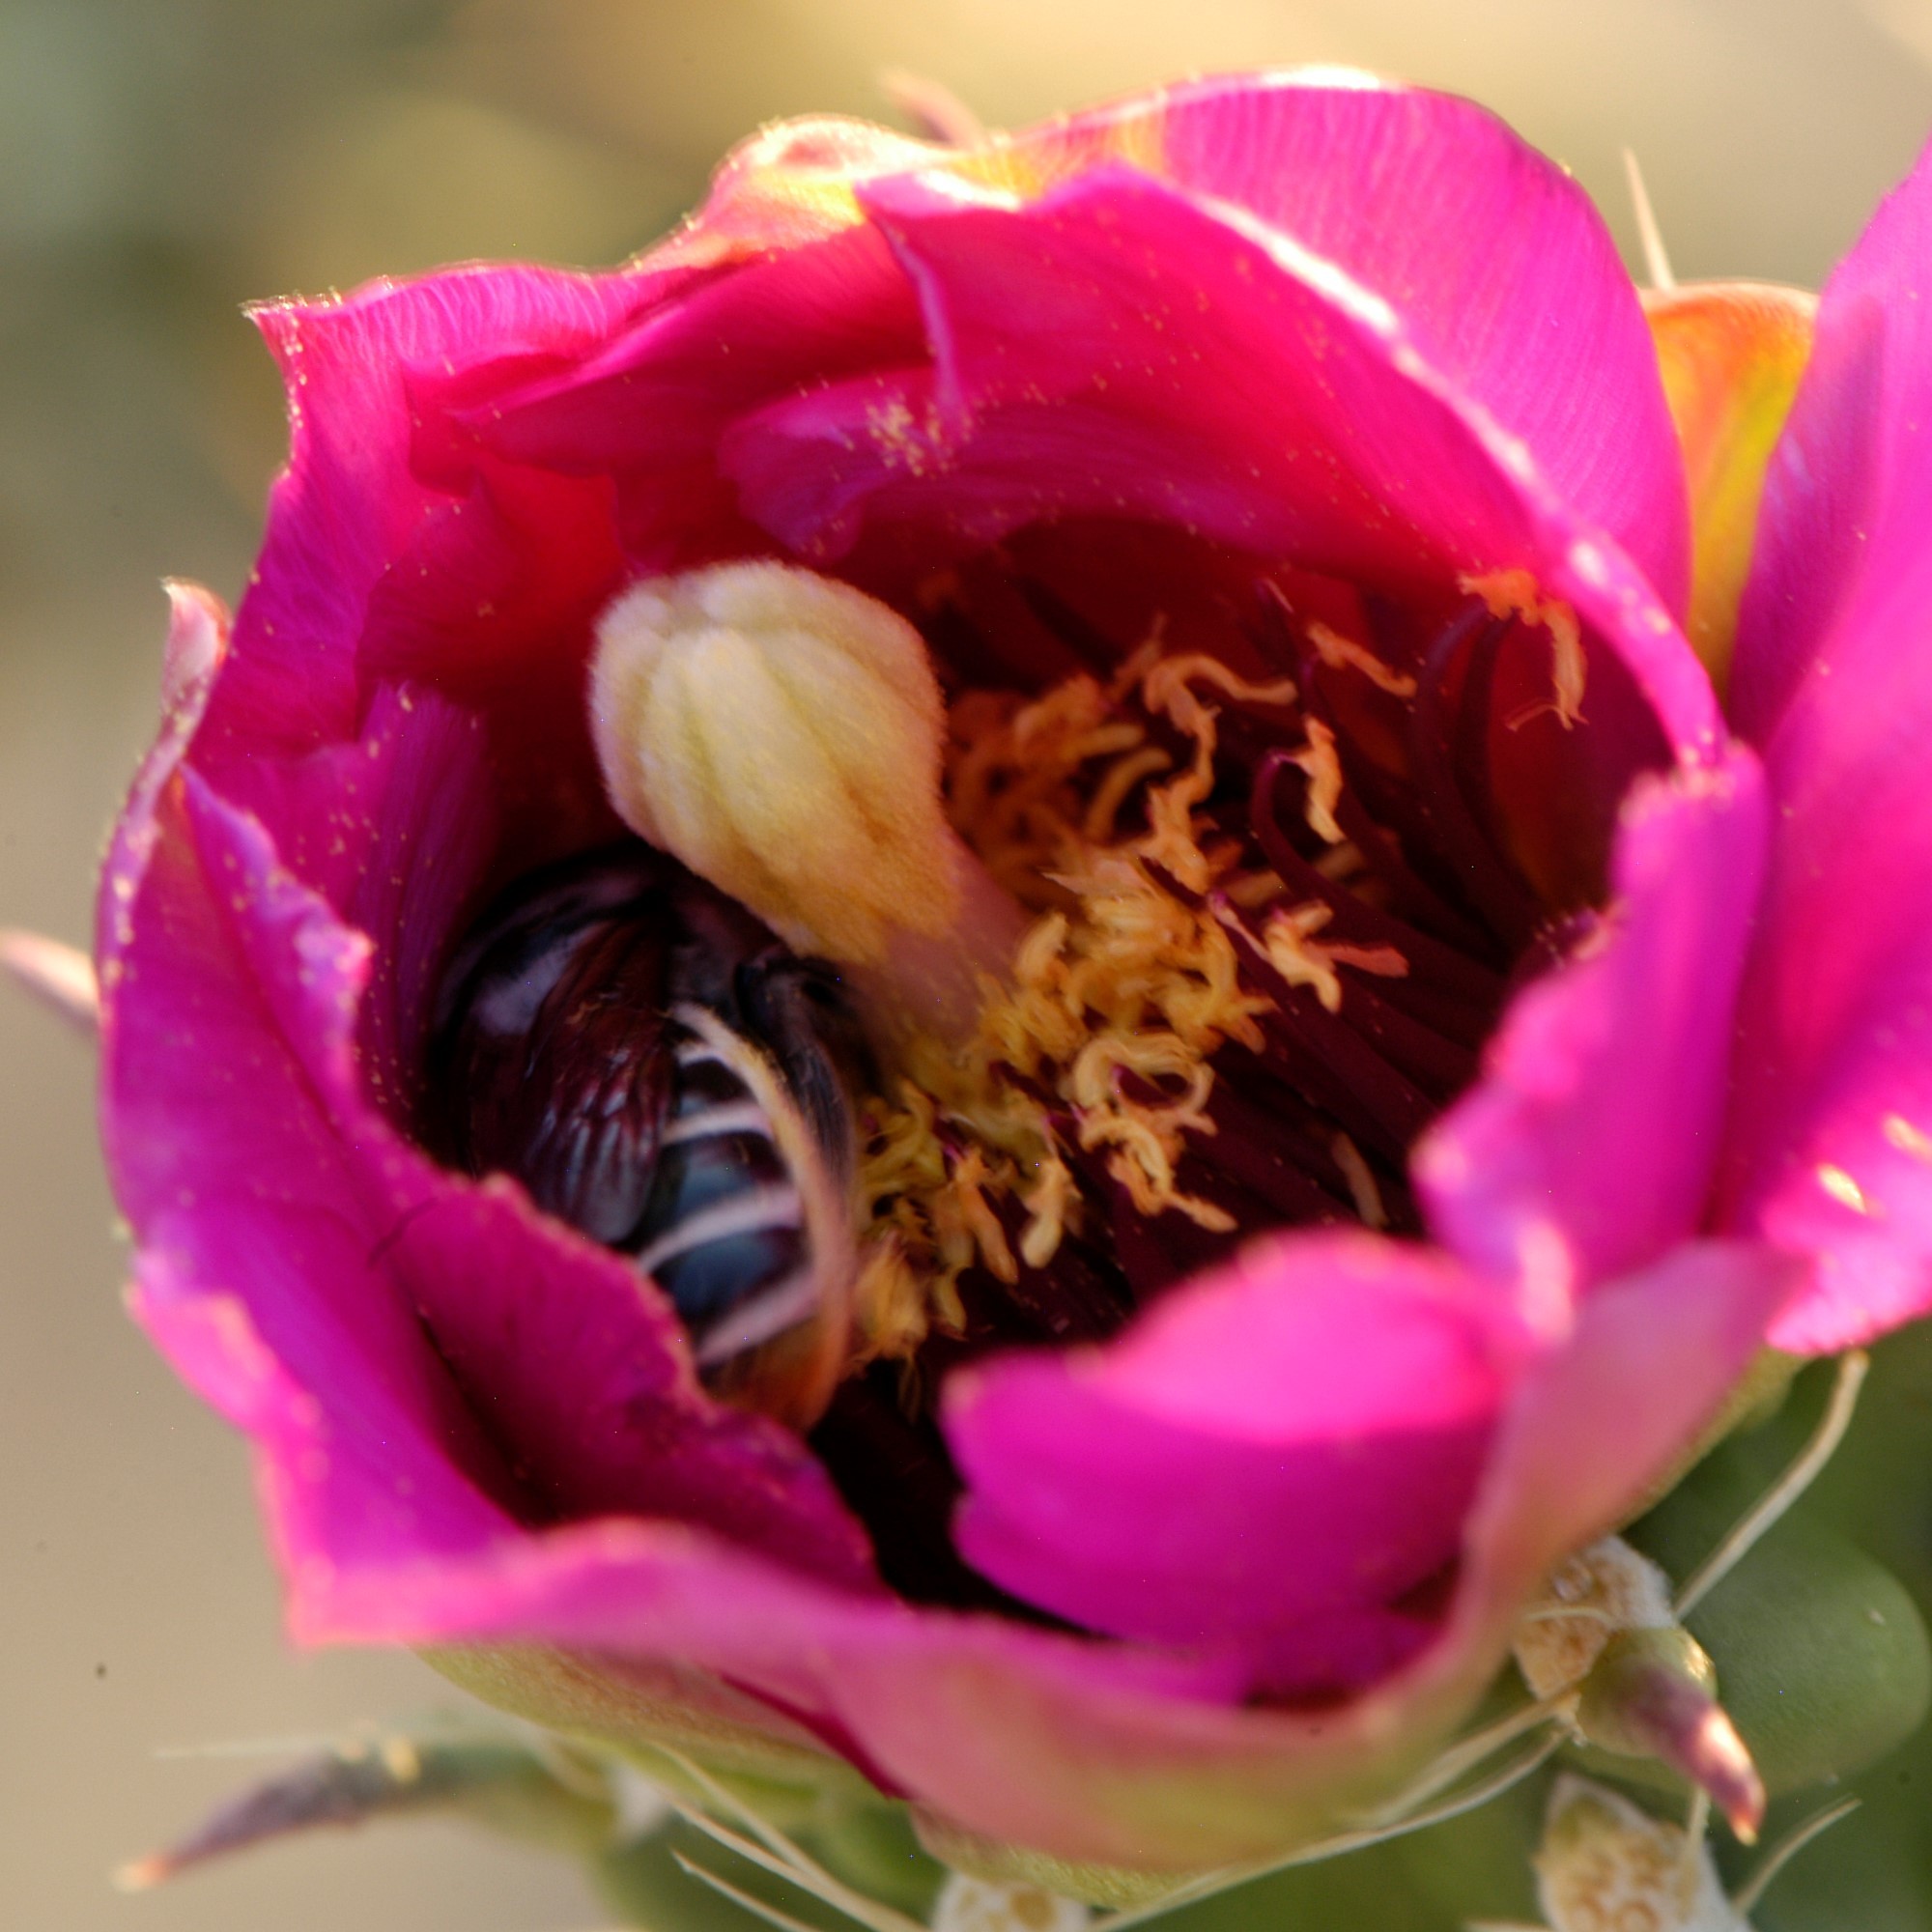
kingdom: Animalia
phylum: Arthropoda
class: Insecta
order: Hymenoptera
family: Megachilidae
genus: Lithurgopsis
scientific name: Lithurgopsis apicalis
